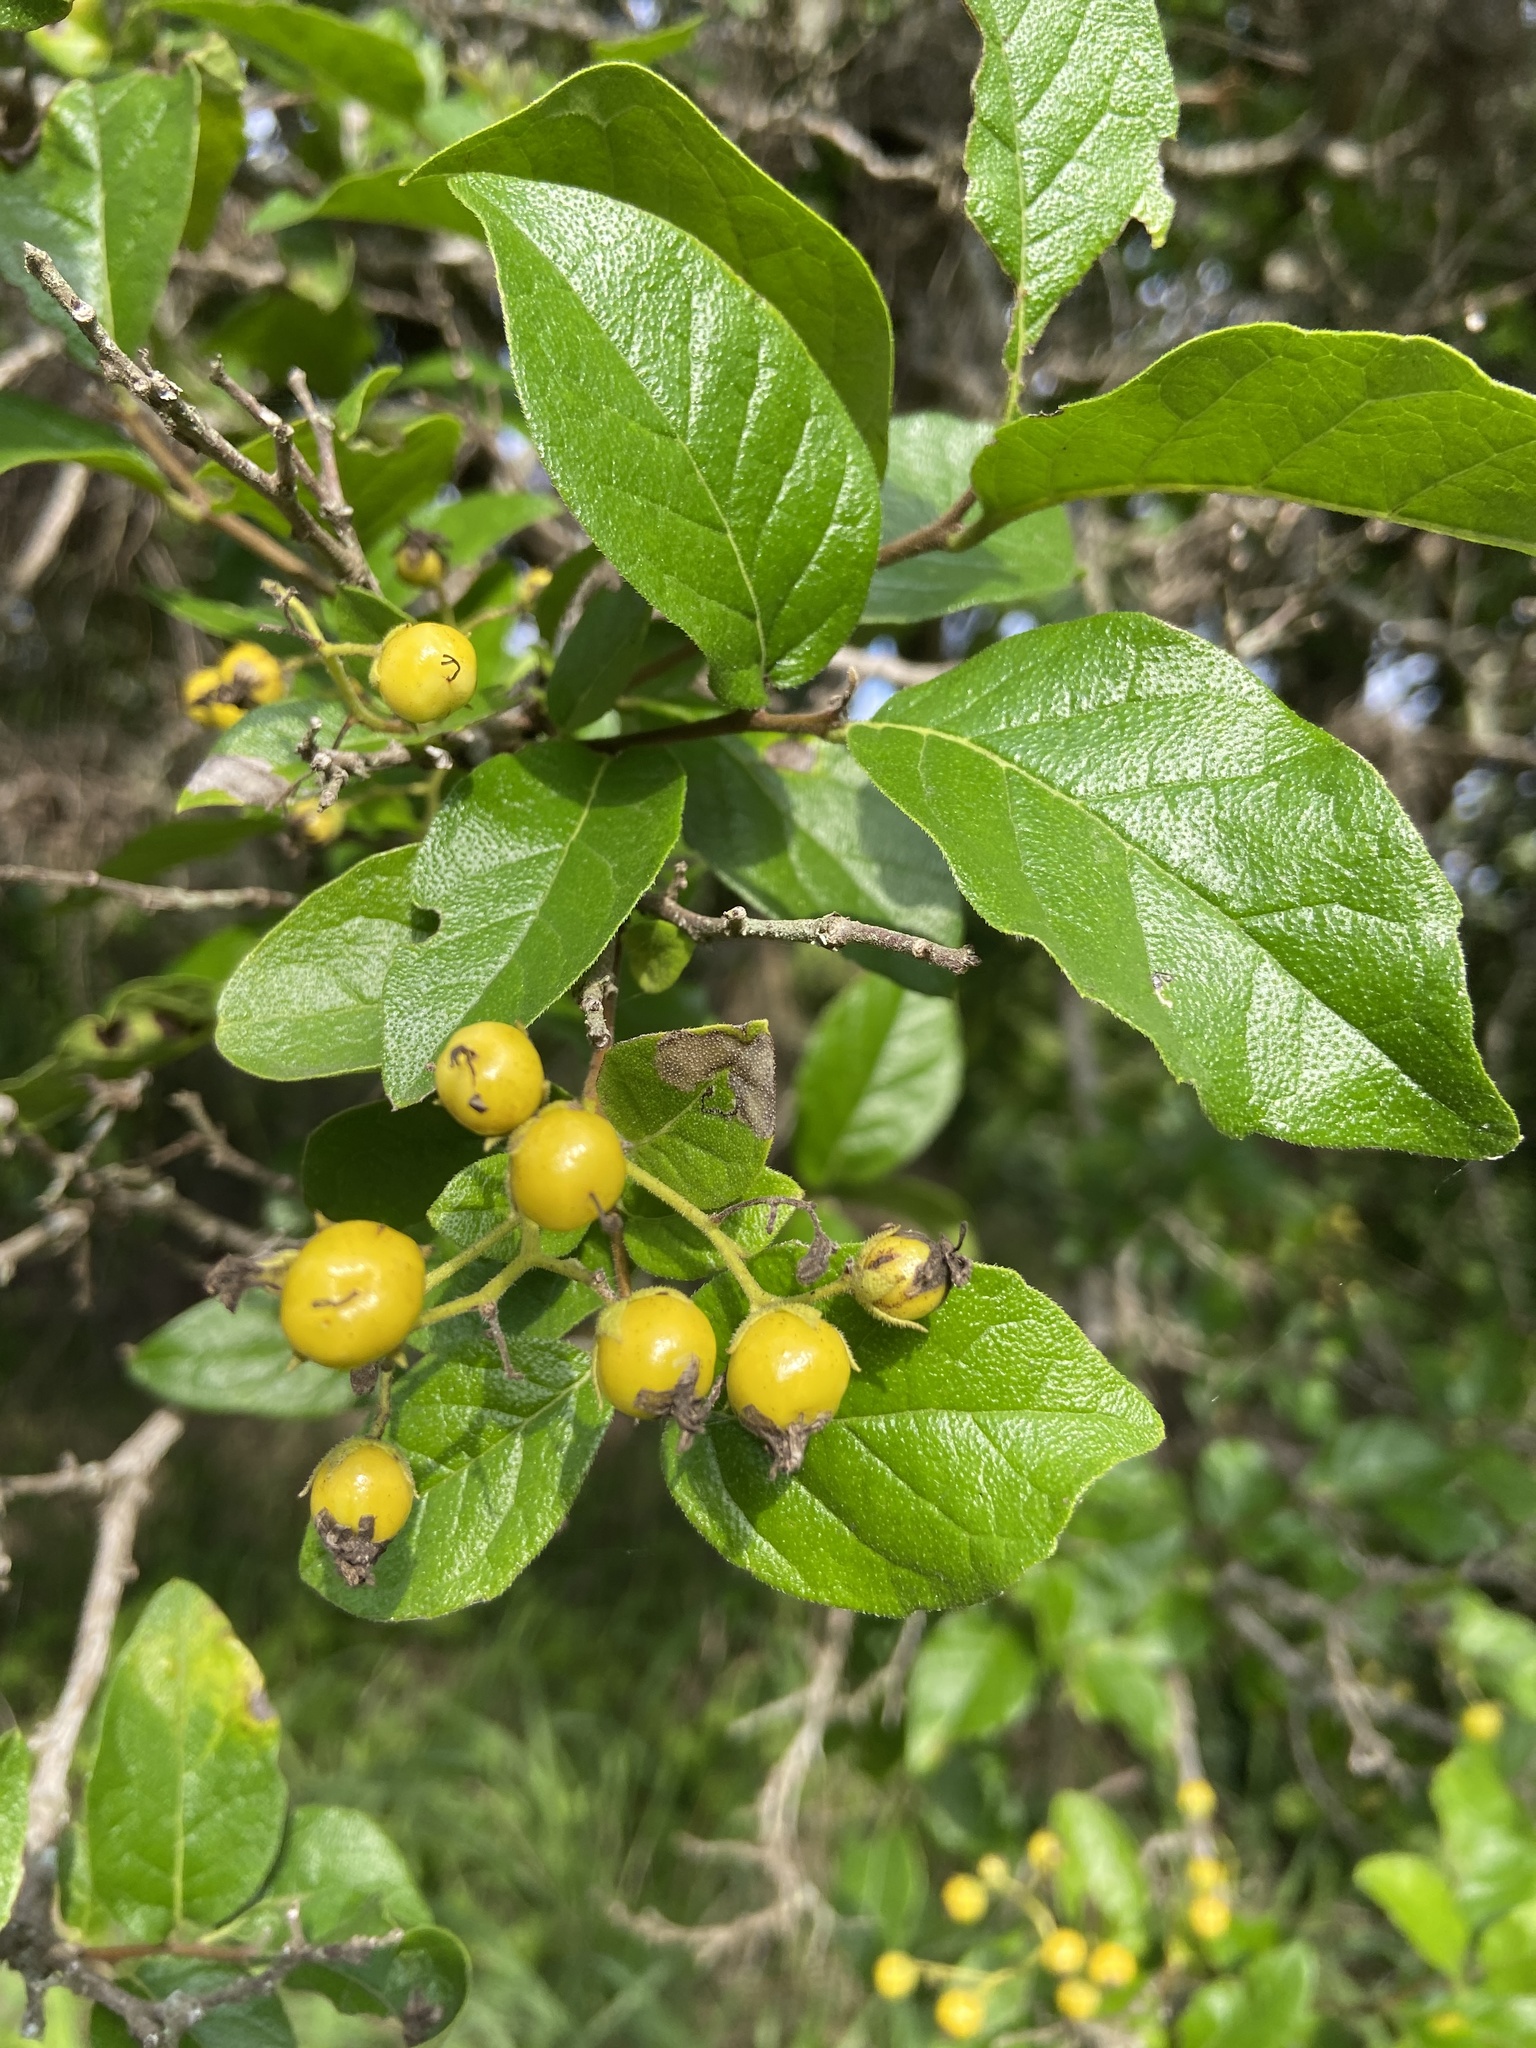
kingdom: Plantae
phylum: Tracheophyta
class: Magnoliopsida
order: Boraginales
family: Ehretiaceae
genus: Ehretia
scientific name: Ehretia anacua
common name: Sugarberry
